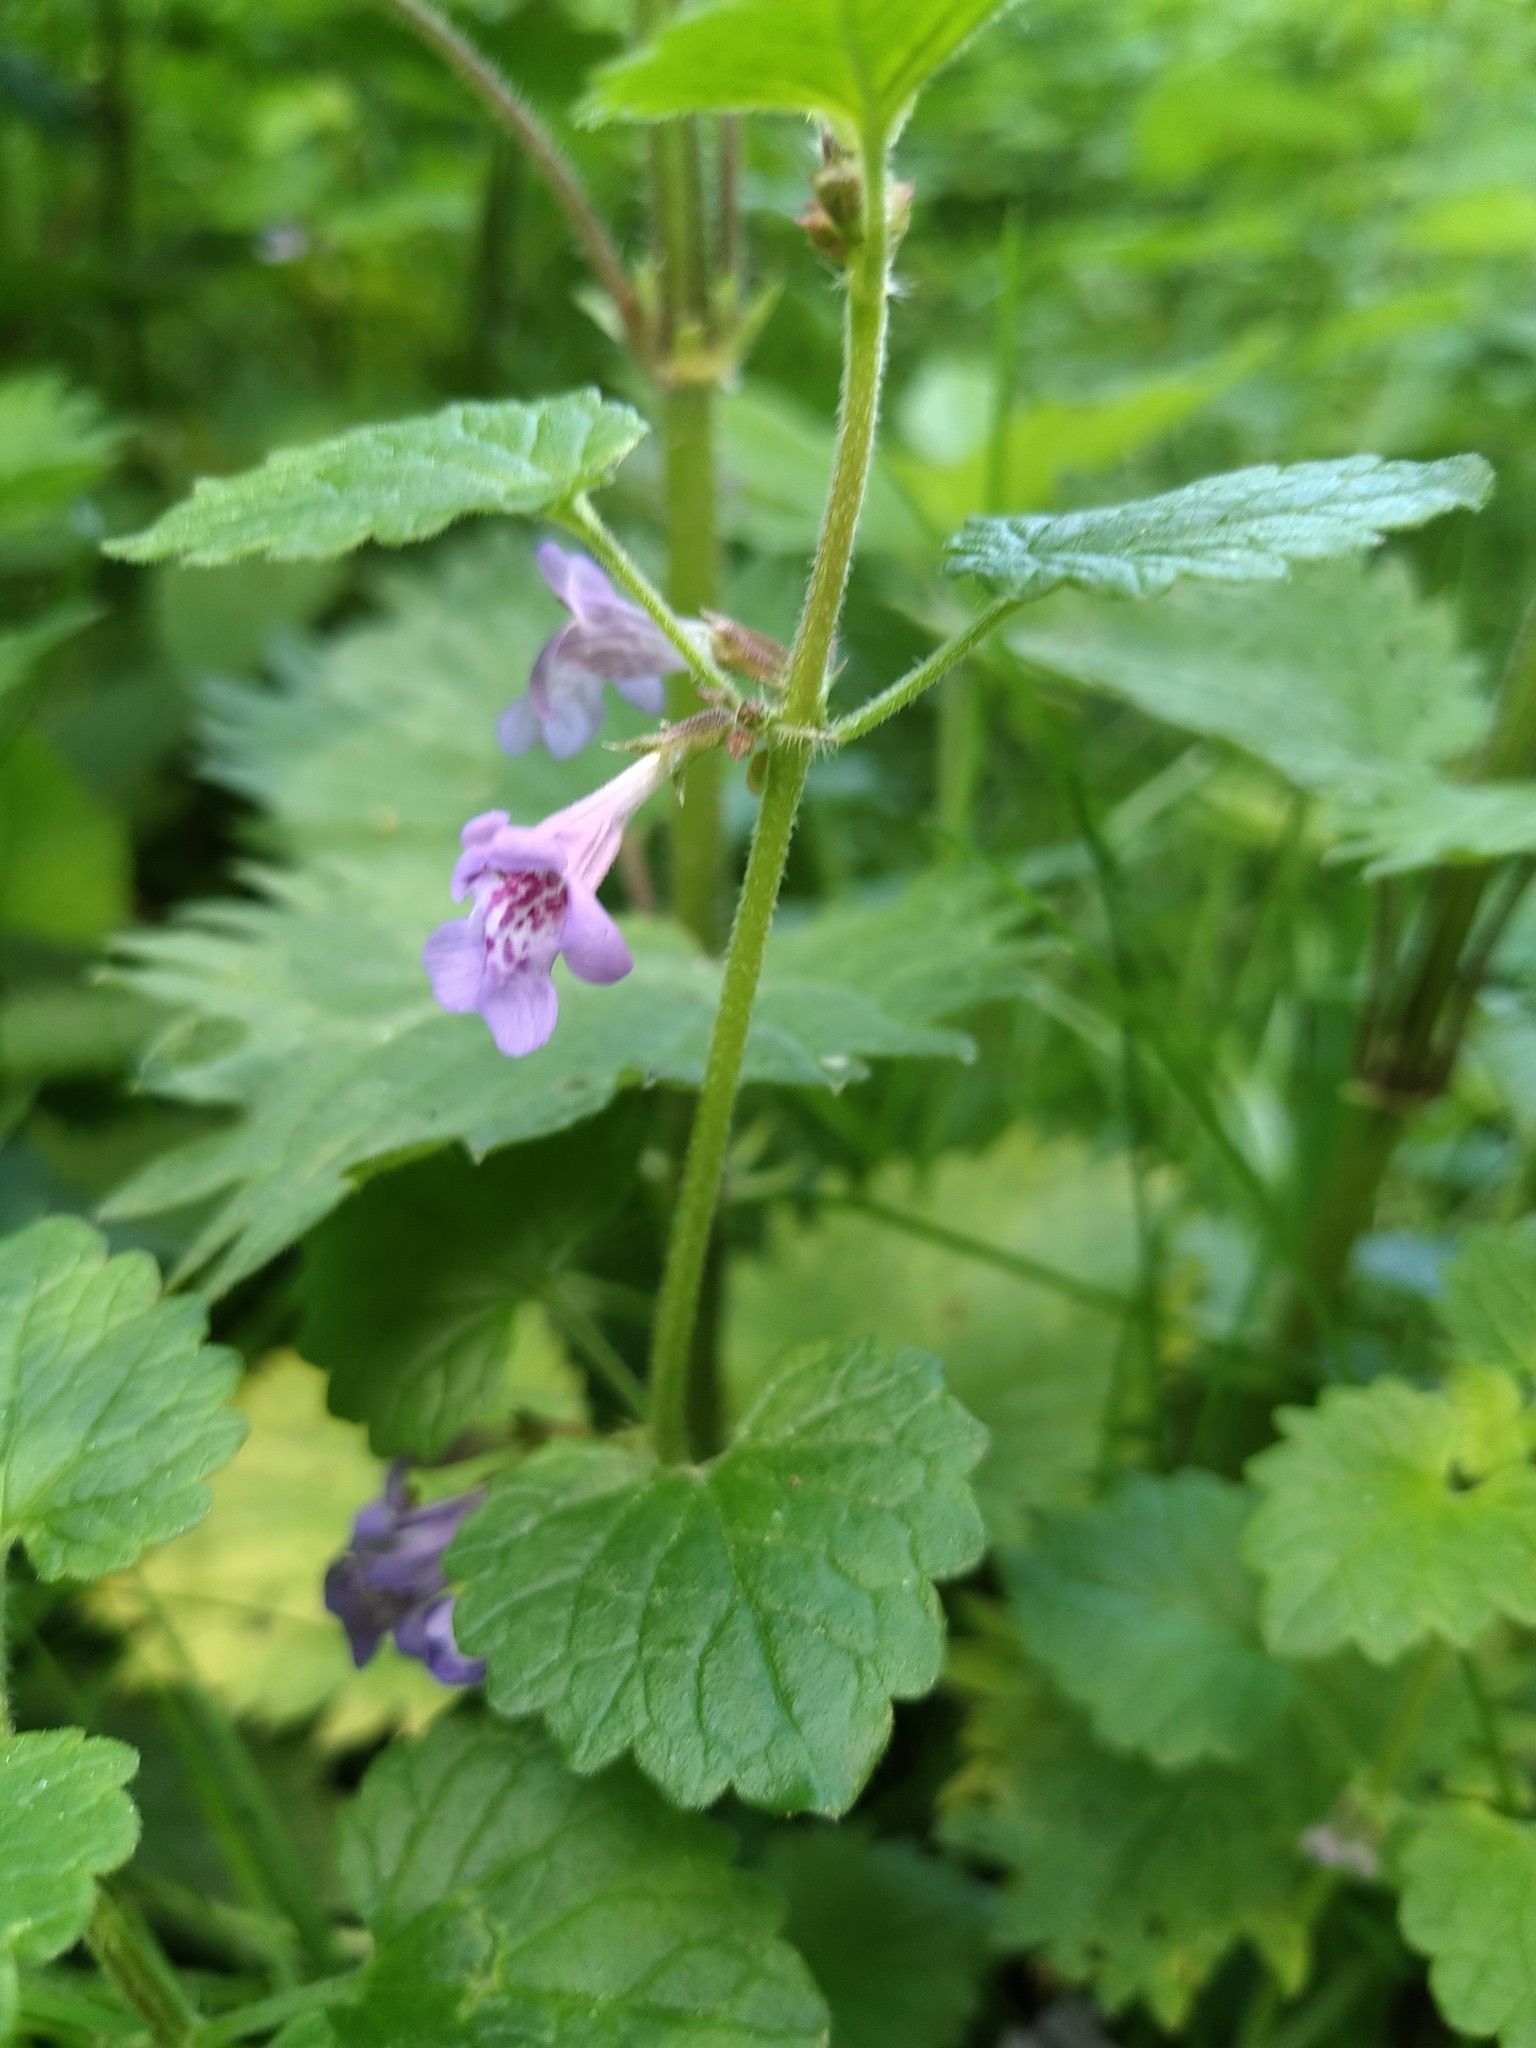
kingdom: Plantae
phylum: Tracheophyta
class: Magnoliopsida
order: Lamiales
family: Lamiaceae
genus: Glechoma
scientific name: Glechoma hederacea
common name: Ground ivy
